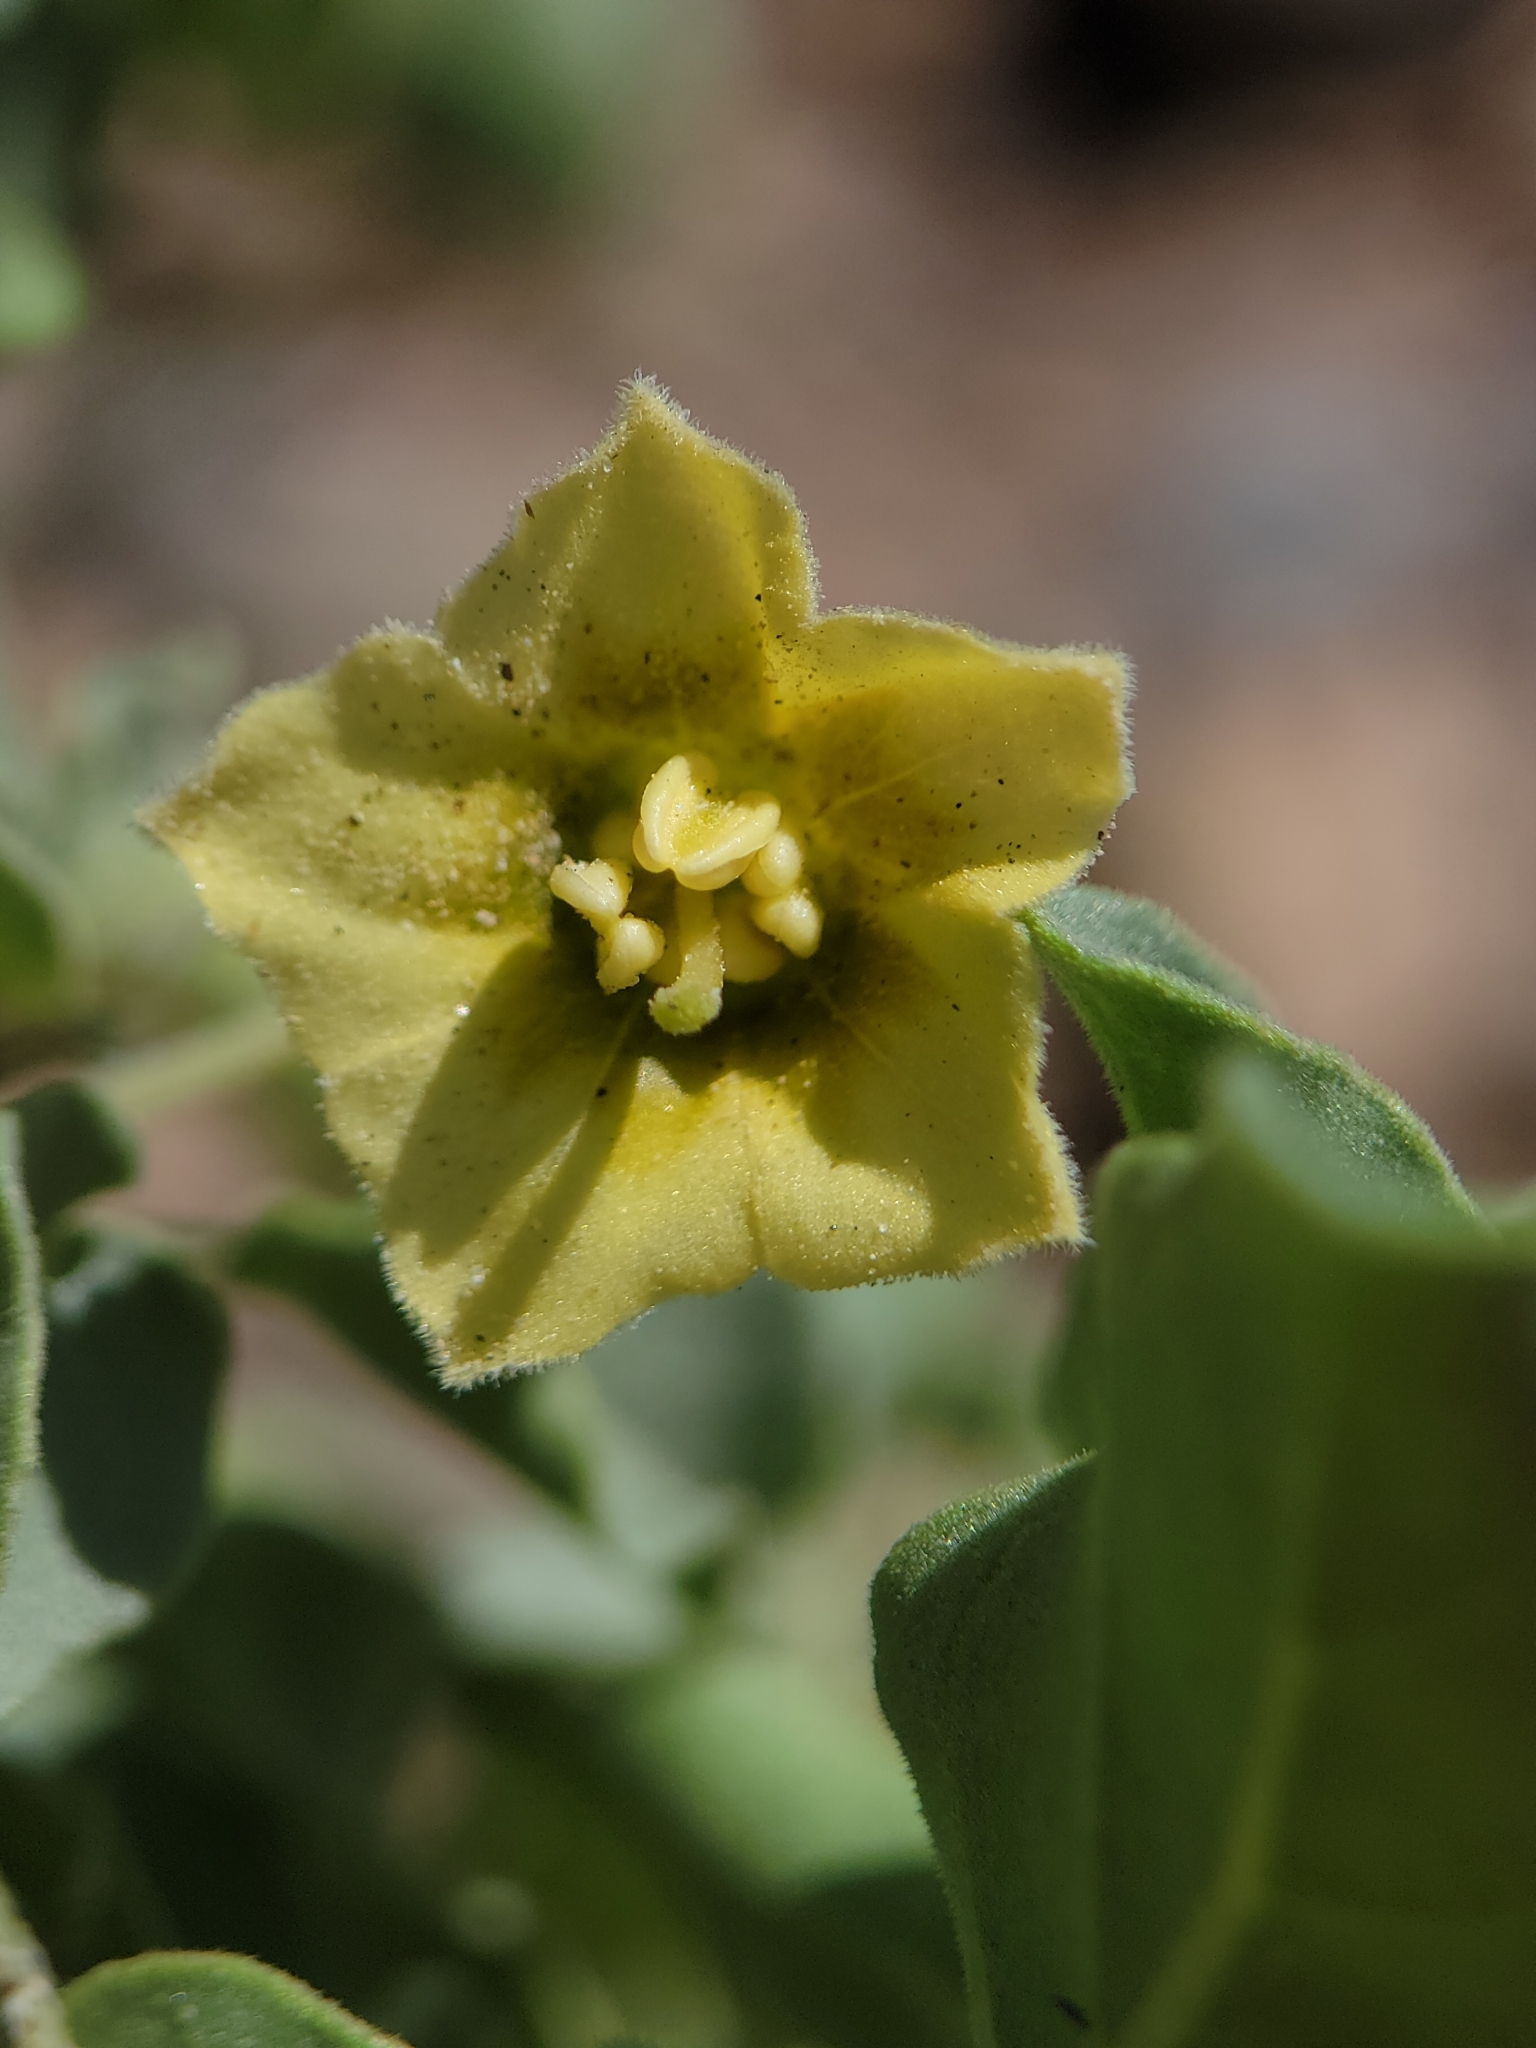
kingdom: Plantae
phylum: Tracheophyta
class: Magnoliopsida
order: Solanales
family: Solanaceae
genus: Physalis
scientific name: Physalis crassifolia
